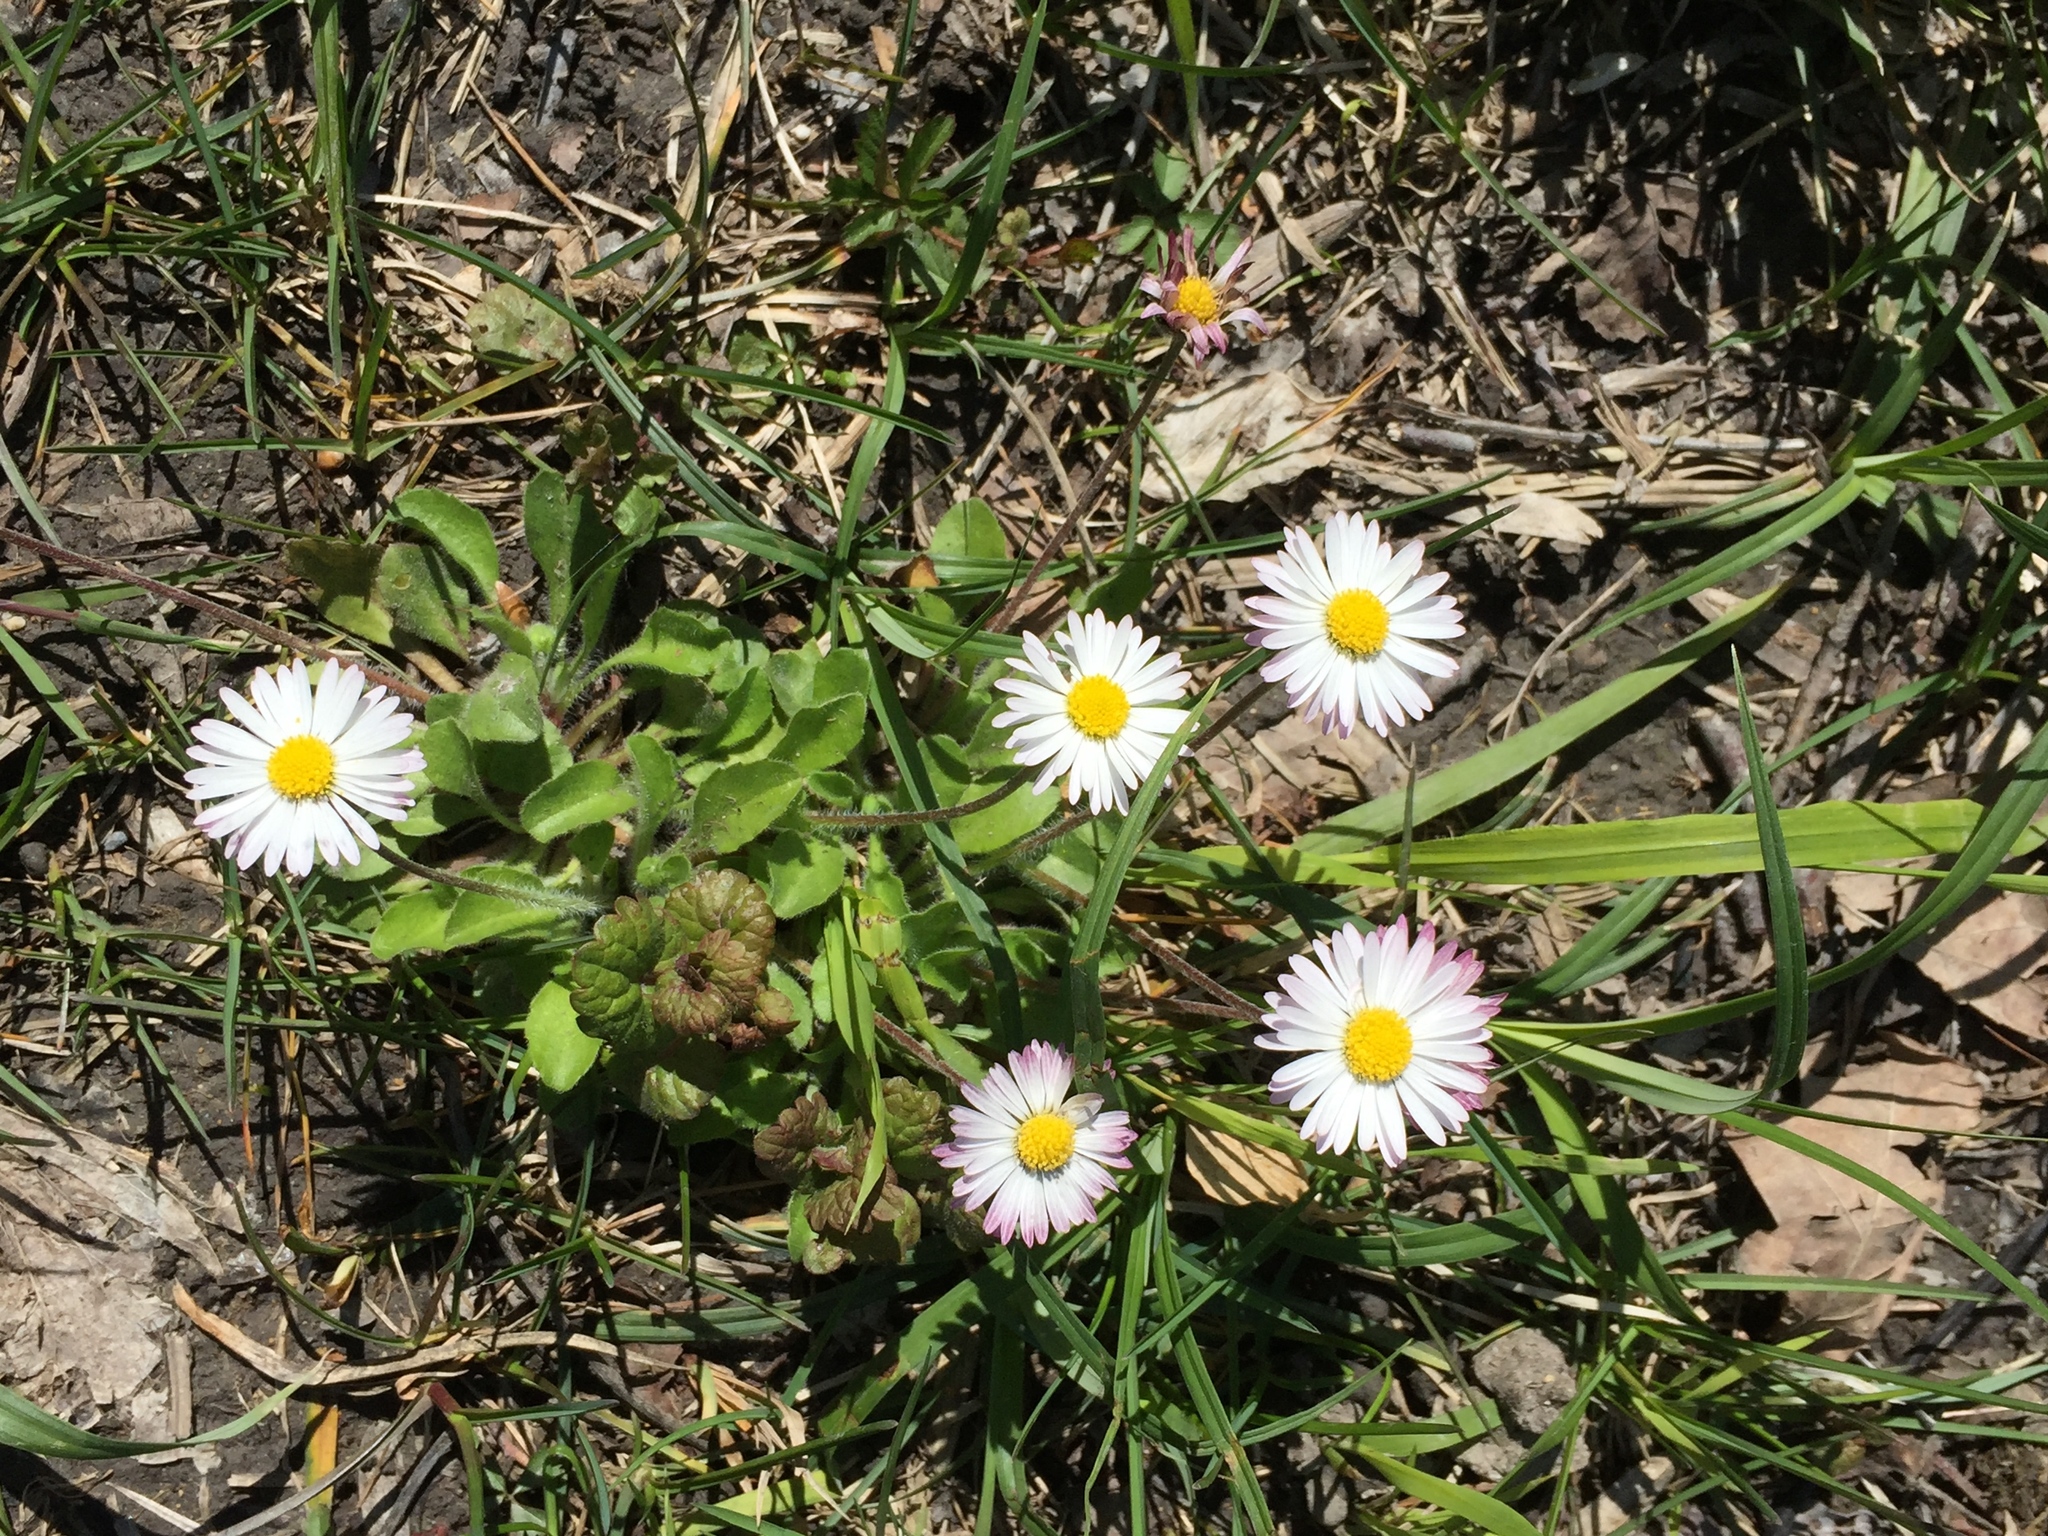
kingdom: Plantae
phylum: Tracheophyta
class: Magnoliopsida
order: Asterales
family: Asteraceae
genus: Bellis
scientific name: Bellis perennis
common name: Lawndaisy
